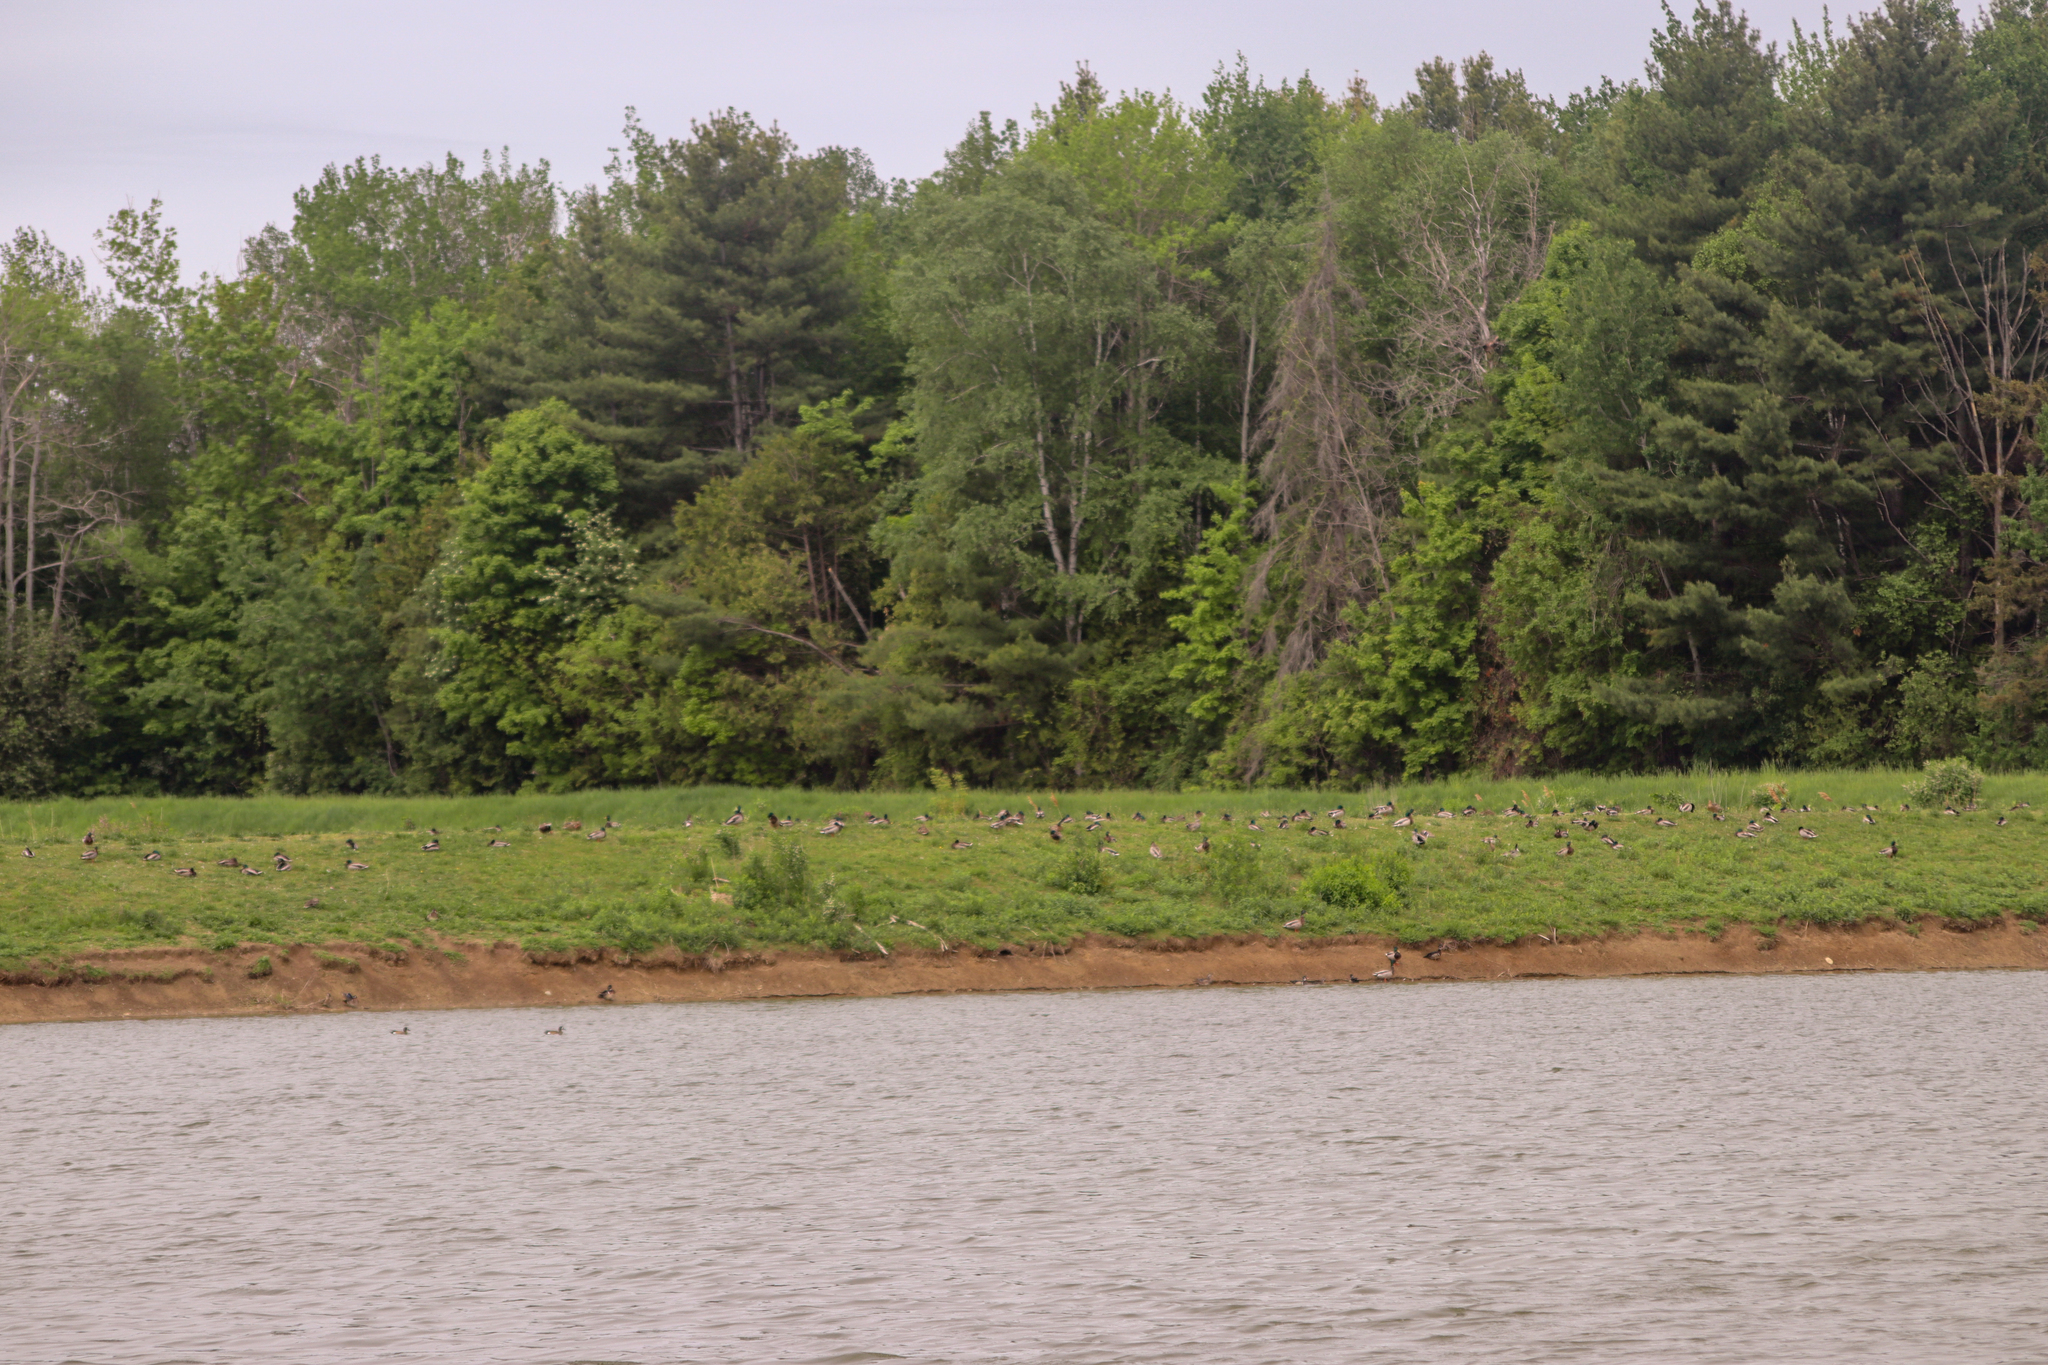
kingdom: Animalia
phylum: Chordata
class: Aves
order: Anseriformes
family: Anatidae
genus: Anas
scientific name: Anas platyrhynchos
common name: Mallard
